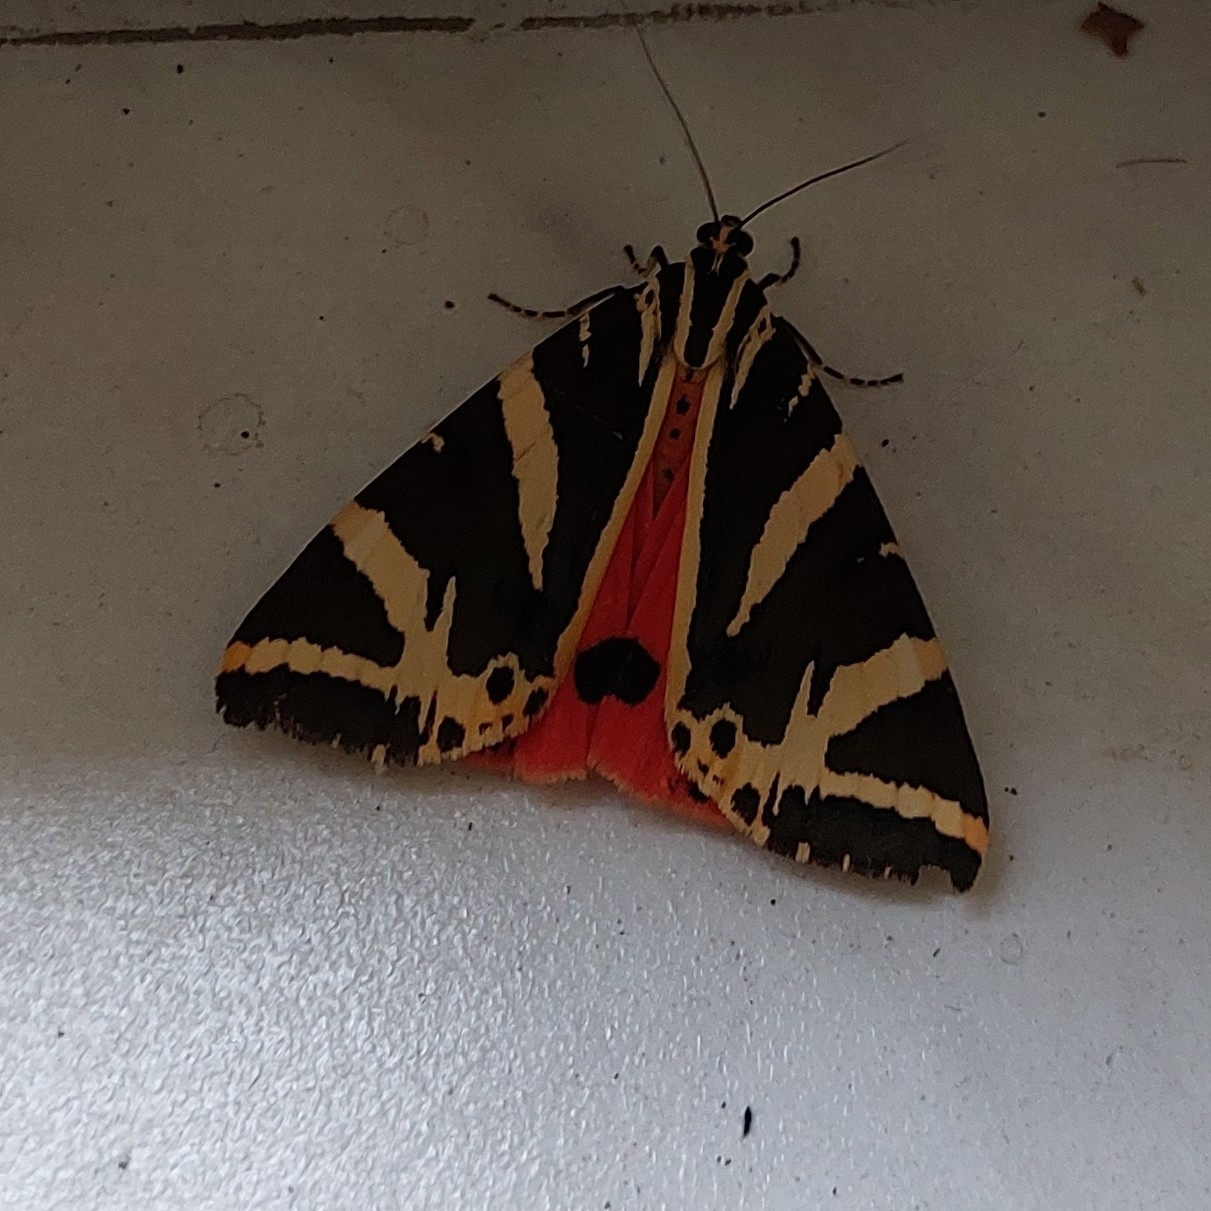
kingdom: Animalia
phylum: Arthropoda
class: Insecta
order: Lepidoptera
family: Erebidae
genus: Euplagia
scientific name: Euplagia quadripunctaria
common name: Jersey tiger
